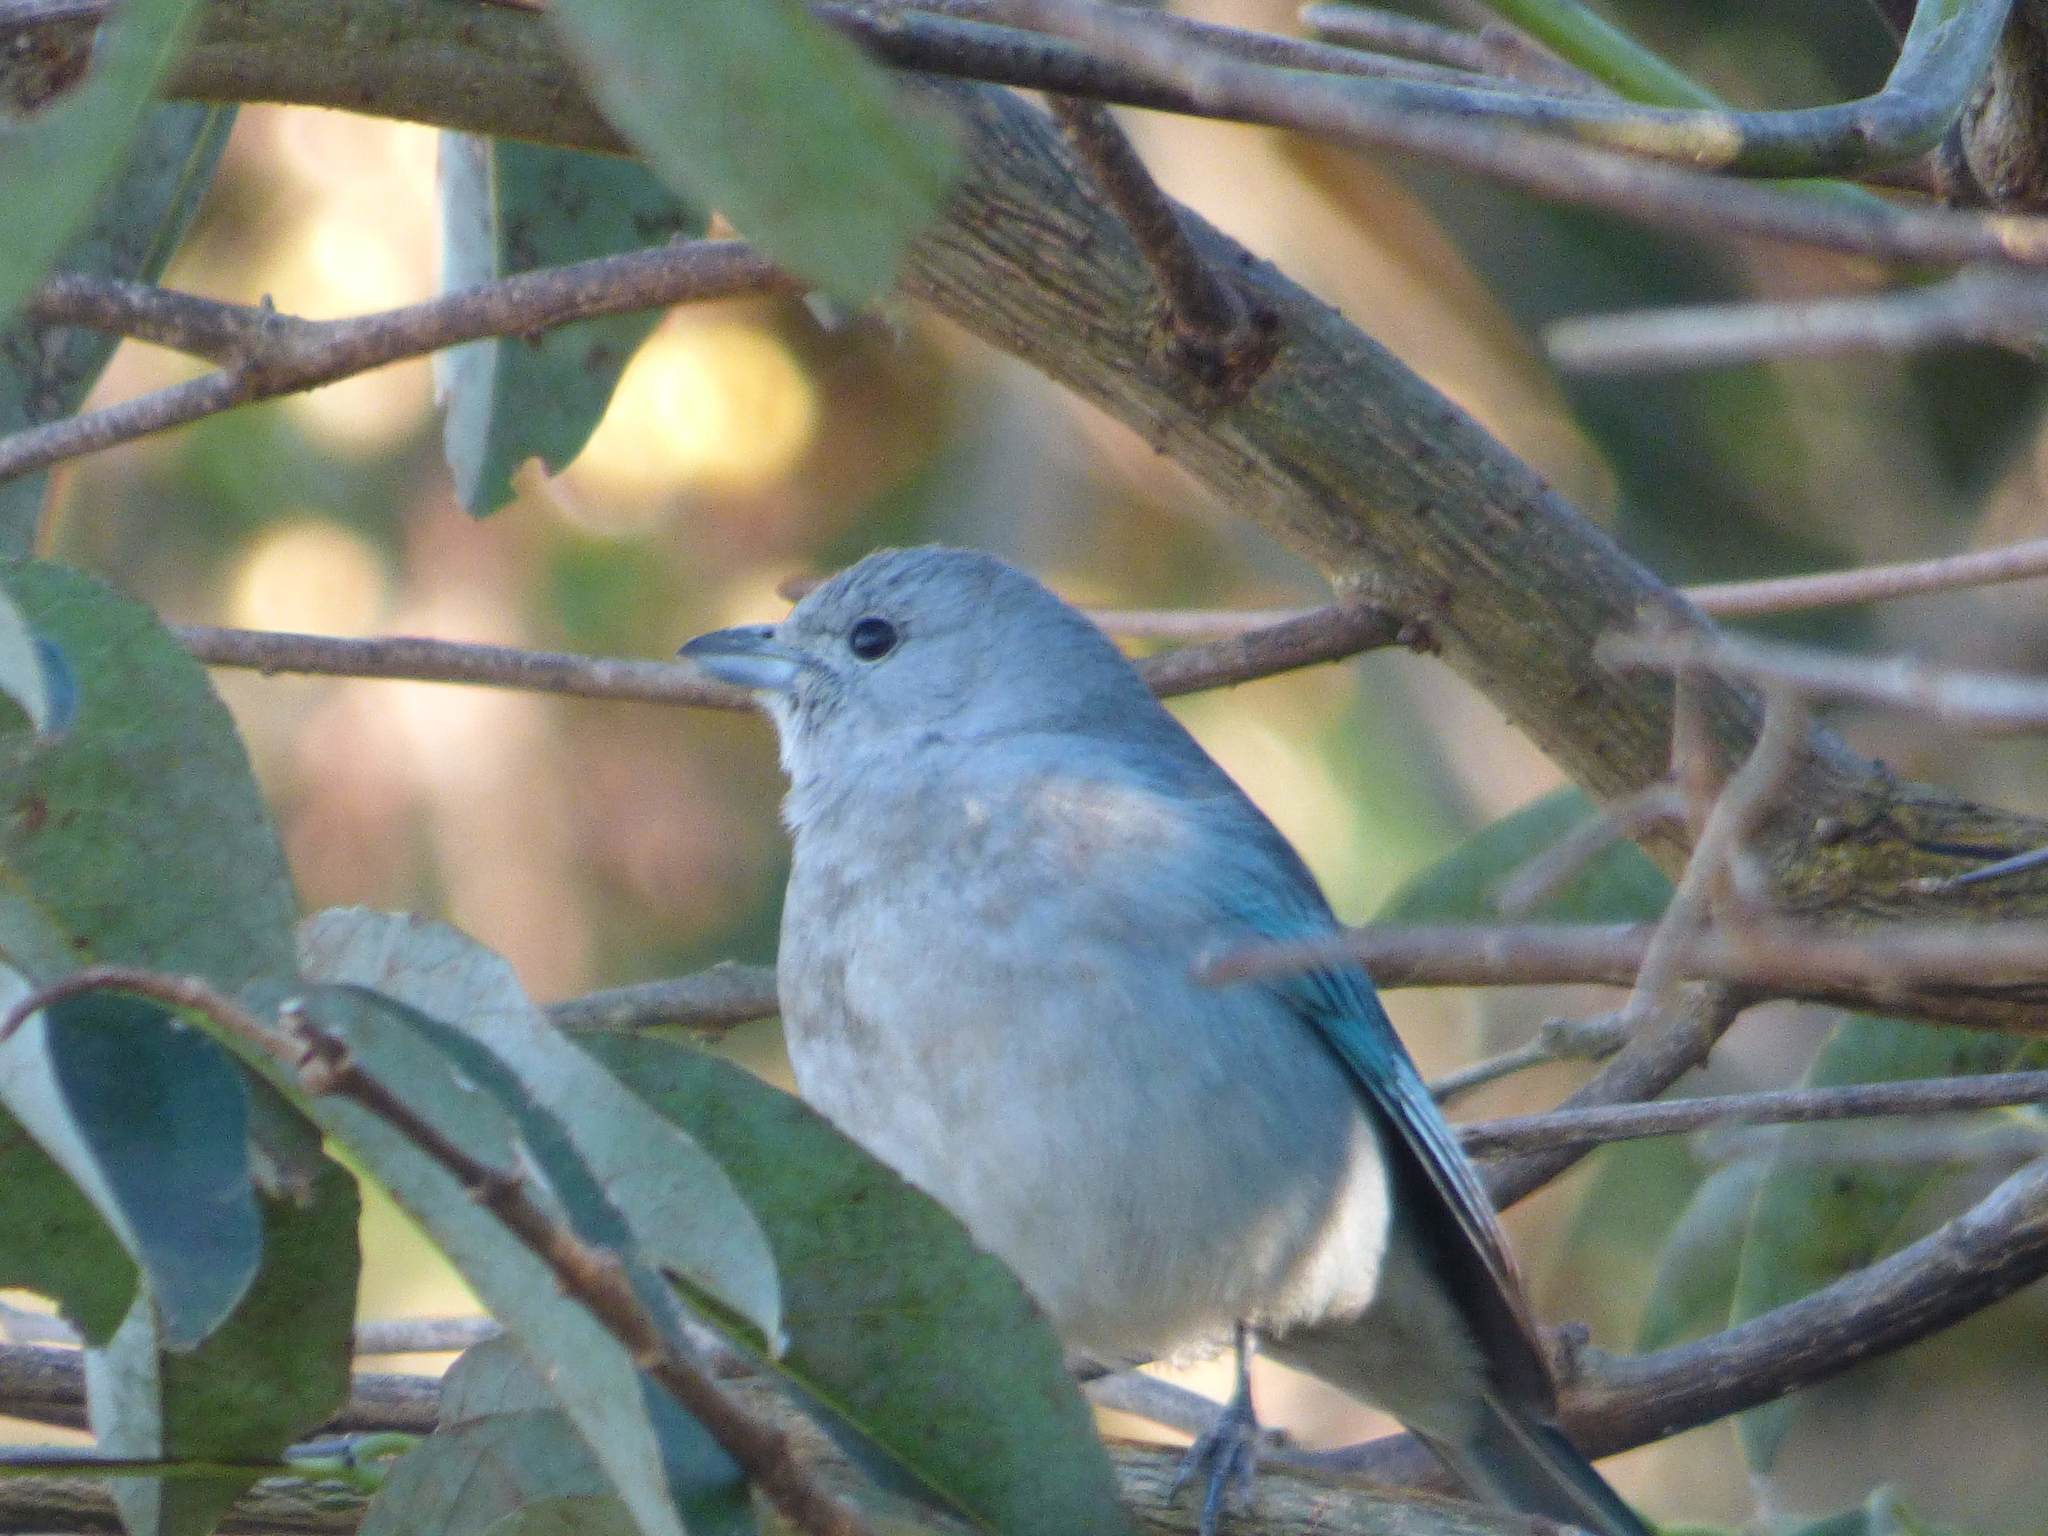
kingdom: Animalia
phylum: Chordata
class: Aves
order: Passeriformes
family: Thraupidae
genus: Thraupis
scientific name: Thraupis sayaca
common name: Sayaca tanager
